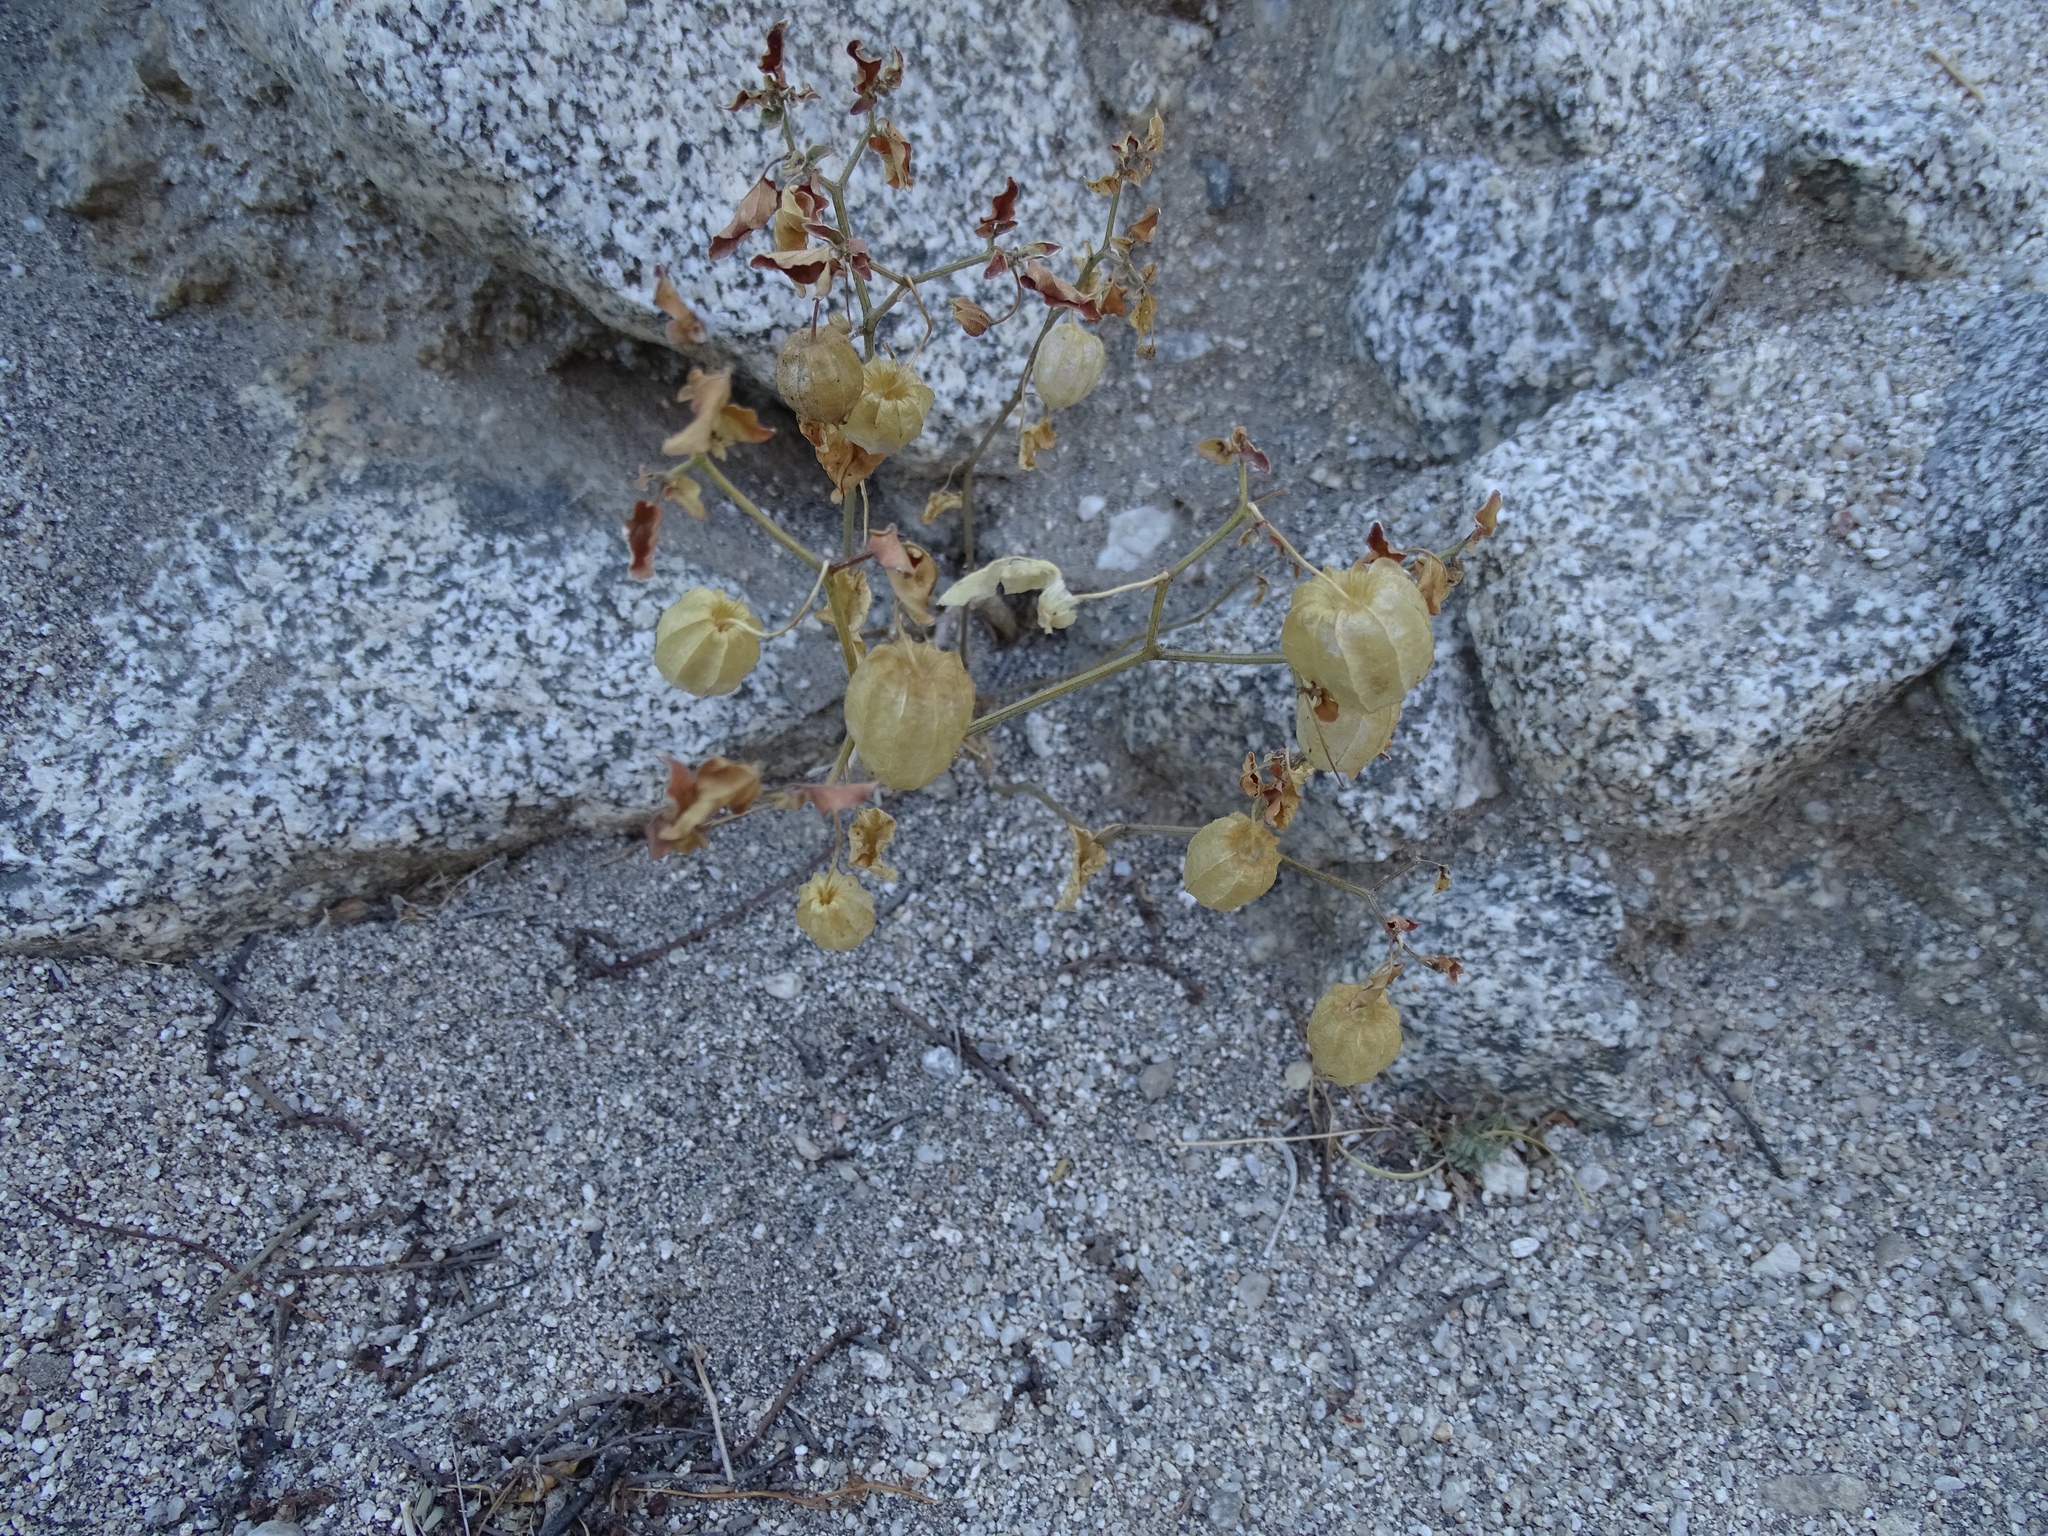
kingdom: Plantae
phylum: Tracheophyta
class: Magnoliopsida
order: Solanales
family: Solanaceae
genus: Physalis
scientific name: Physalis crassifolia
